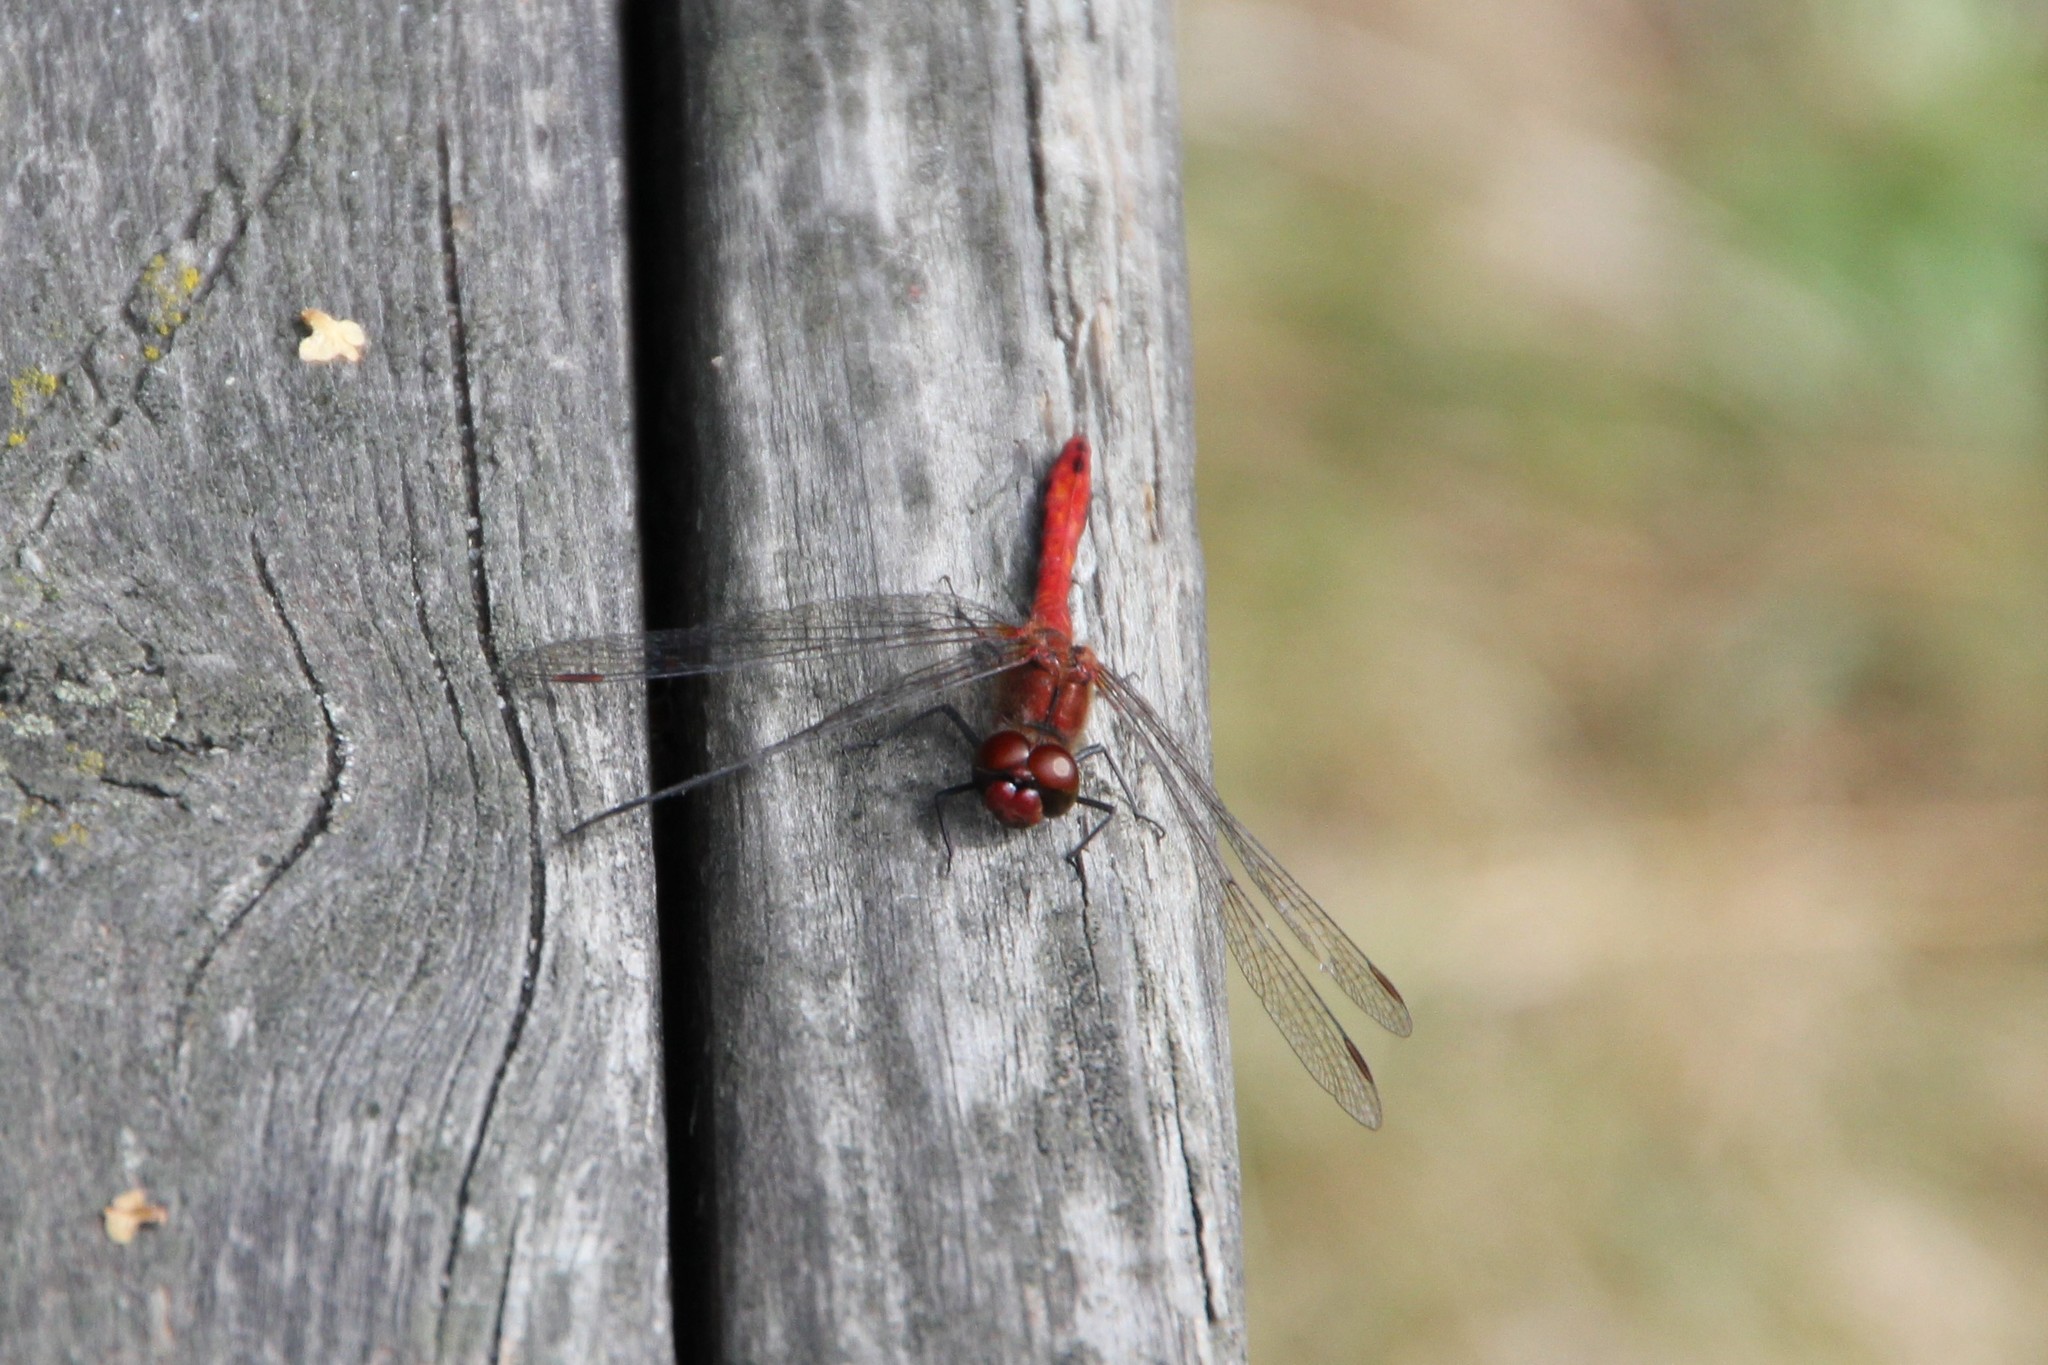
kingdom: Animalia
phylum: Arthropoda
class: Insecta
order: Odonata
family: Libellulidae
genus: Sympetrum
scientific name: Sympetrum sanguineum
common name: Ruddy darter
